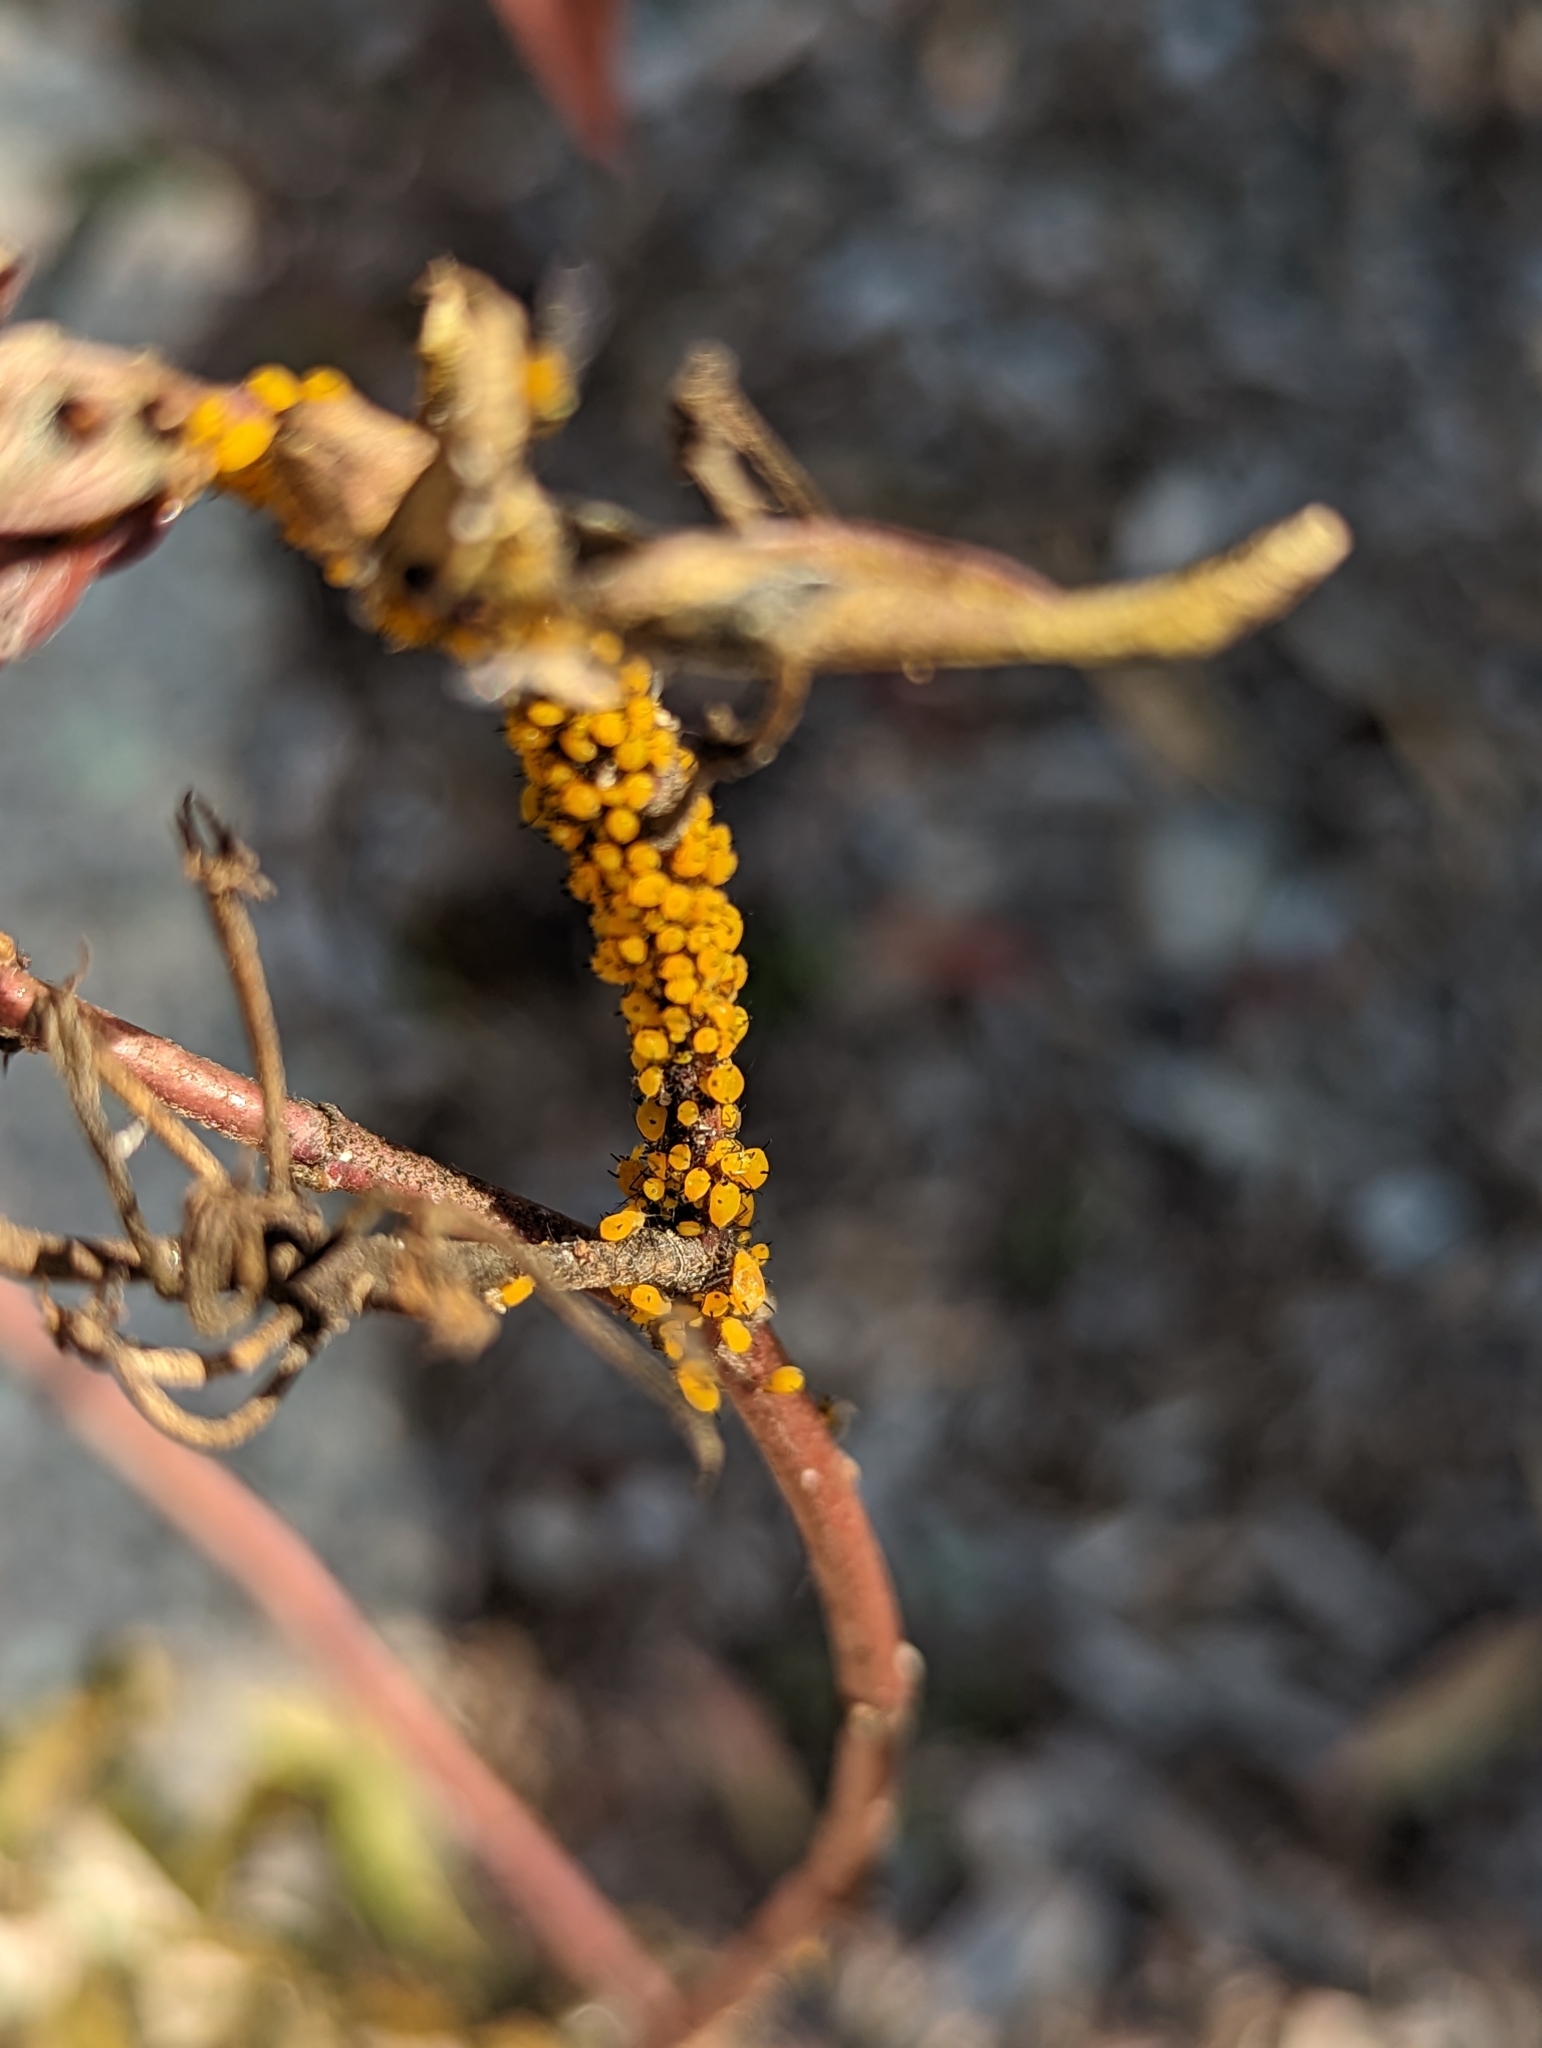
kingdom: Animalia
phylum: Arthropoda
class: Insecta
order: Hemiptera
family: Aphididae
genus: Aphis
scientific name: Aphis nerii
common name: Oleander aphid
